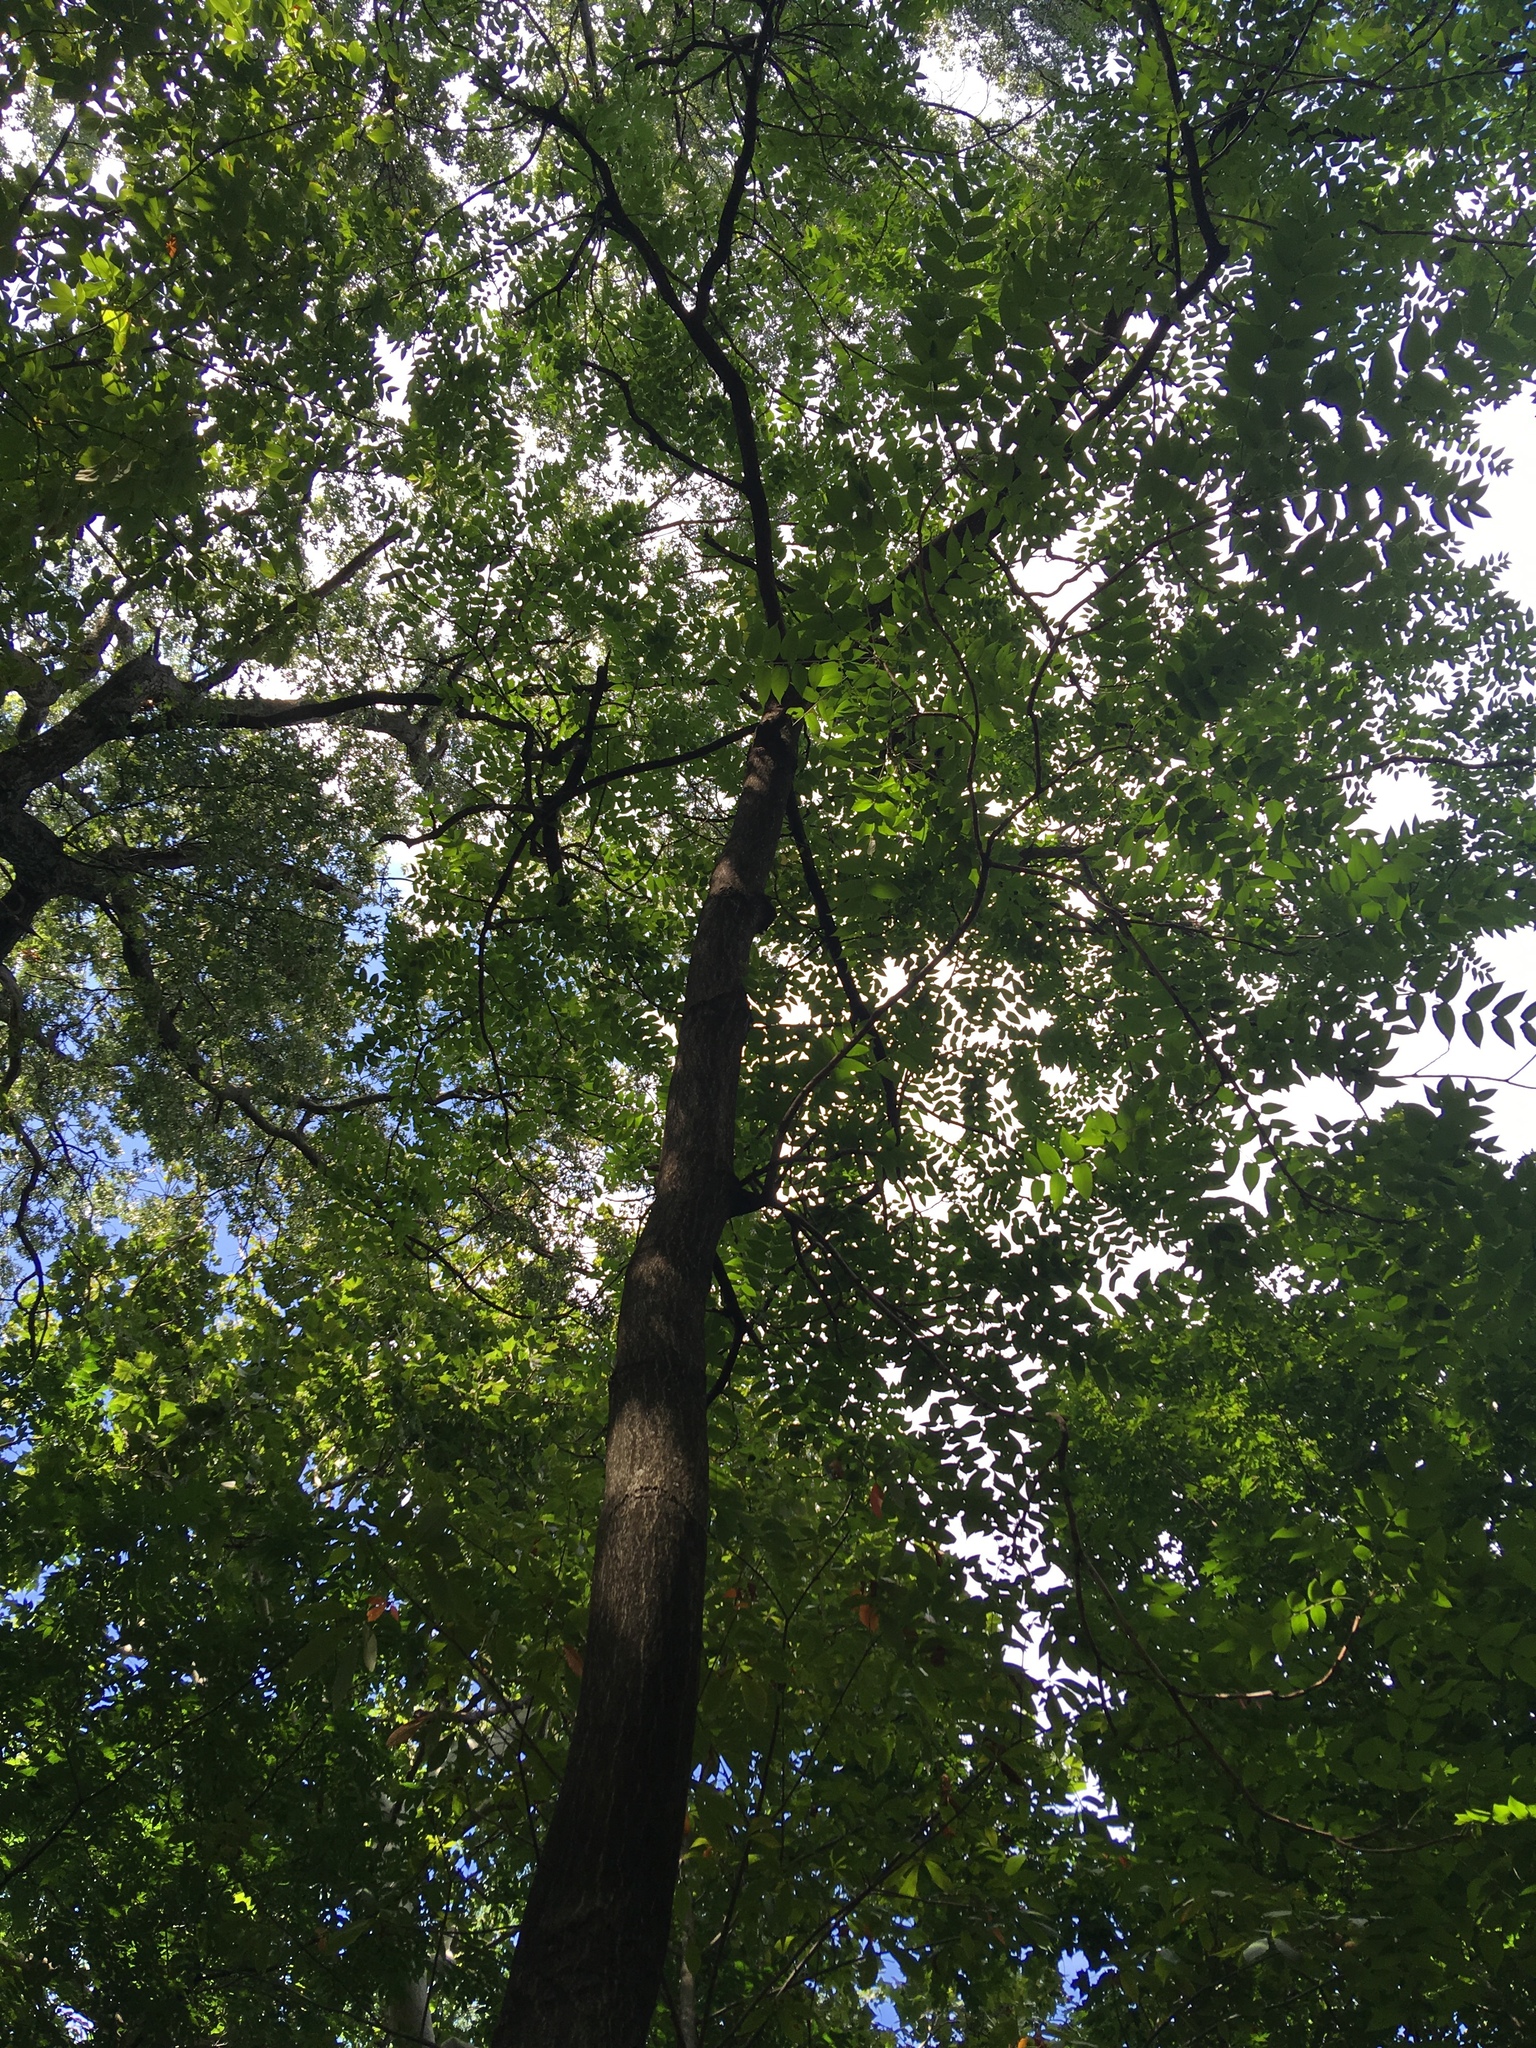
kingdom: Plantae
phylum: Tracheophyta
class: Magnoliopsida
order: Sapindales
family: Simaroubaceae
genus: Ailanthus
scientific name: Ailanthus altissima
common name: Tree-of-heaven
